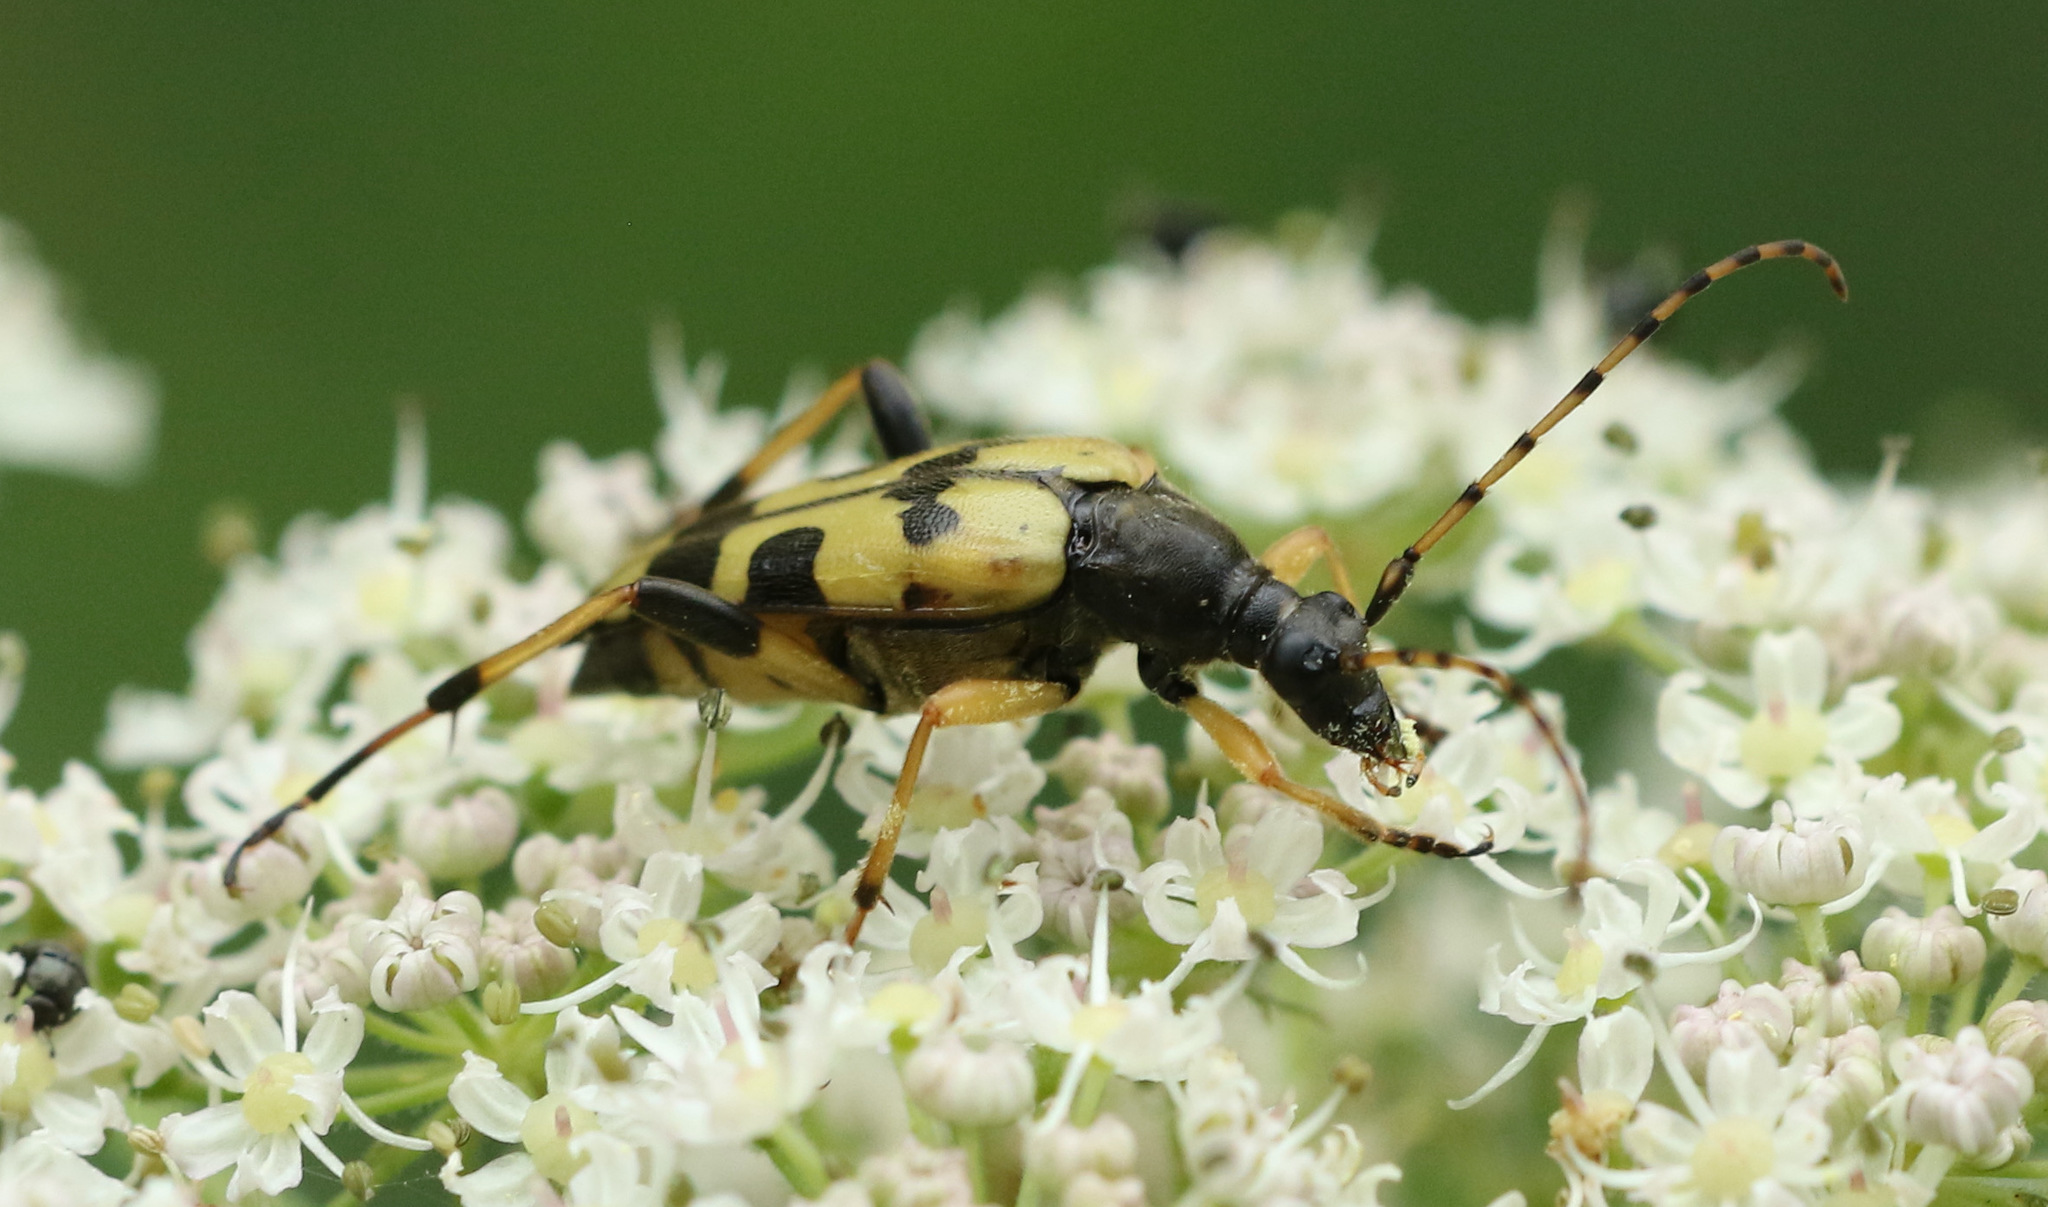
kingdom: Animalia
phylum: Arthropoda
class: Insecta
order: Coleoptera
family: Cerambycidae
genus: Rutpela
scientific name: Rutpela maculata
